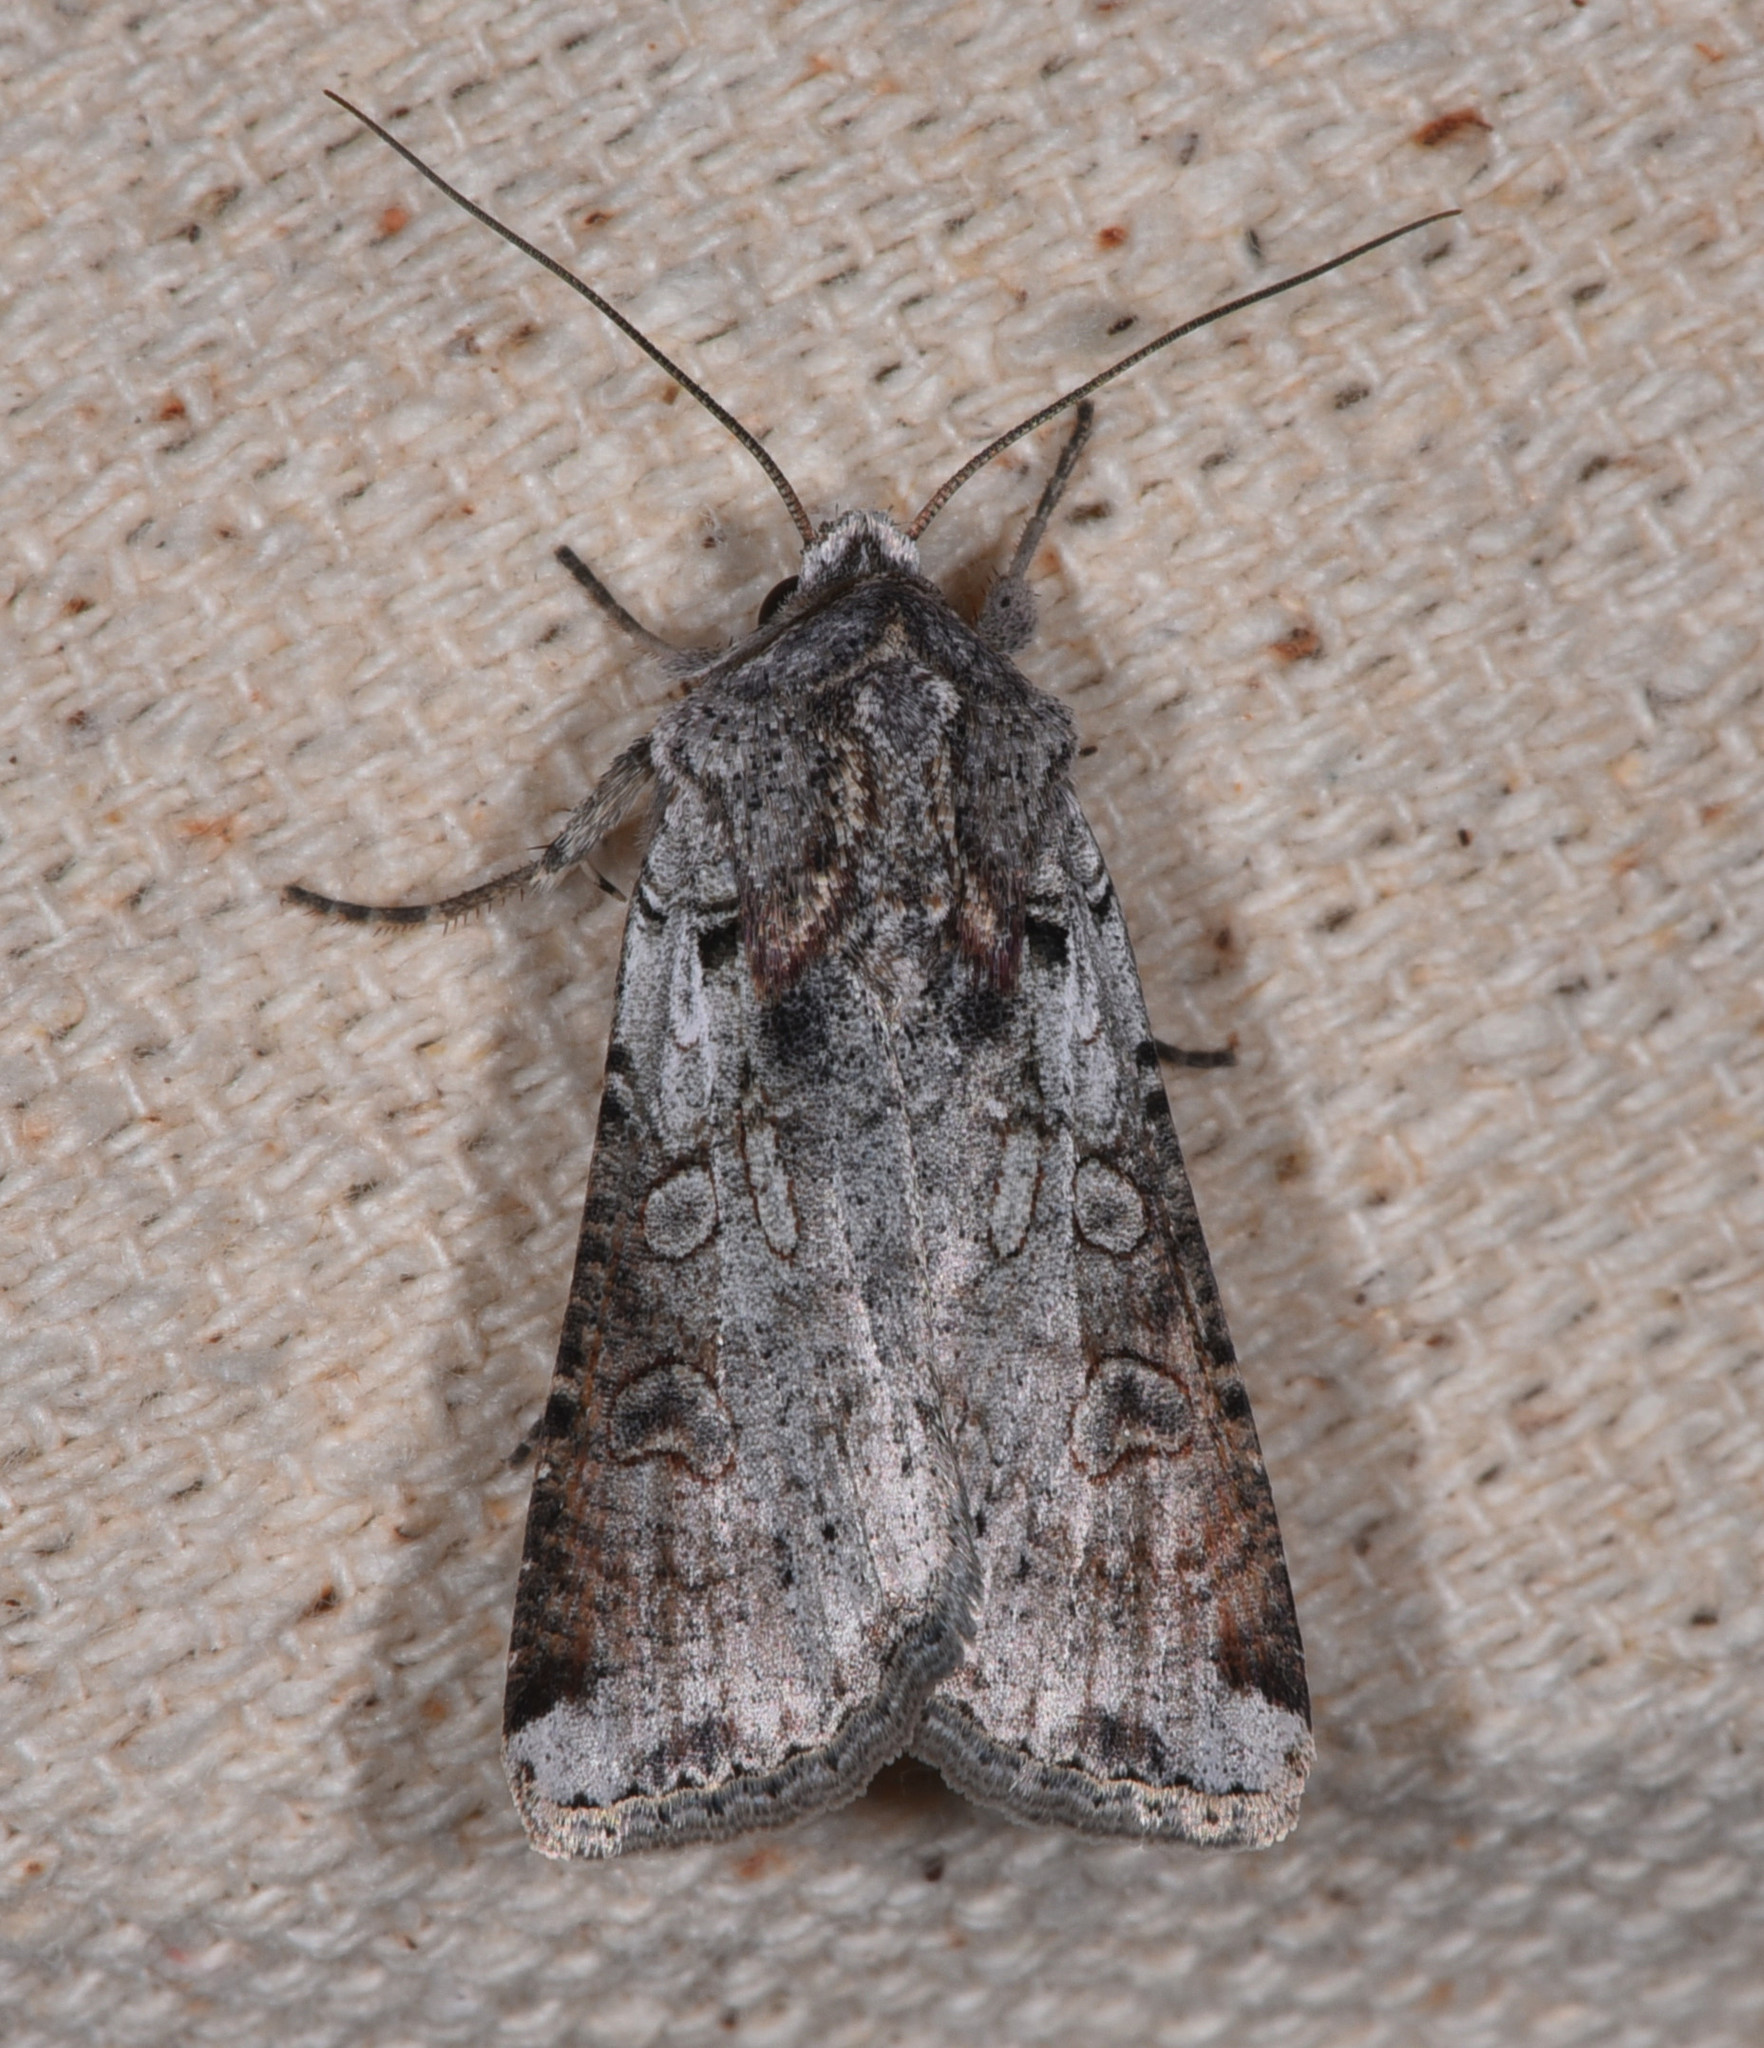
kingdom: Animalia
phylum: Arthropoda
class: Insecta
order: Lepidoptera
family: Noctuidae
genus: Hemieuxoa
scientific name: Hemieuxoa rudens
